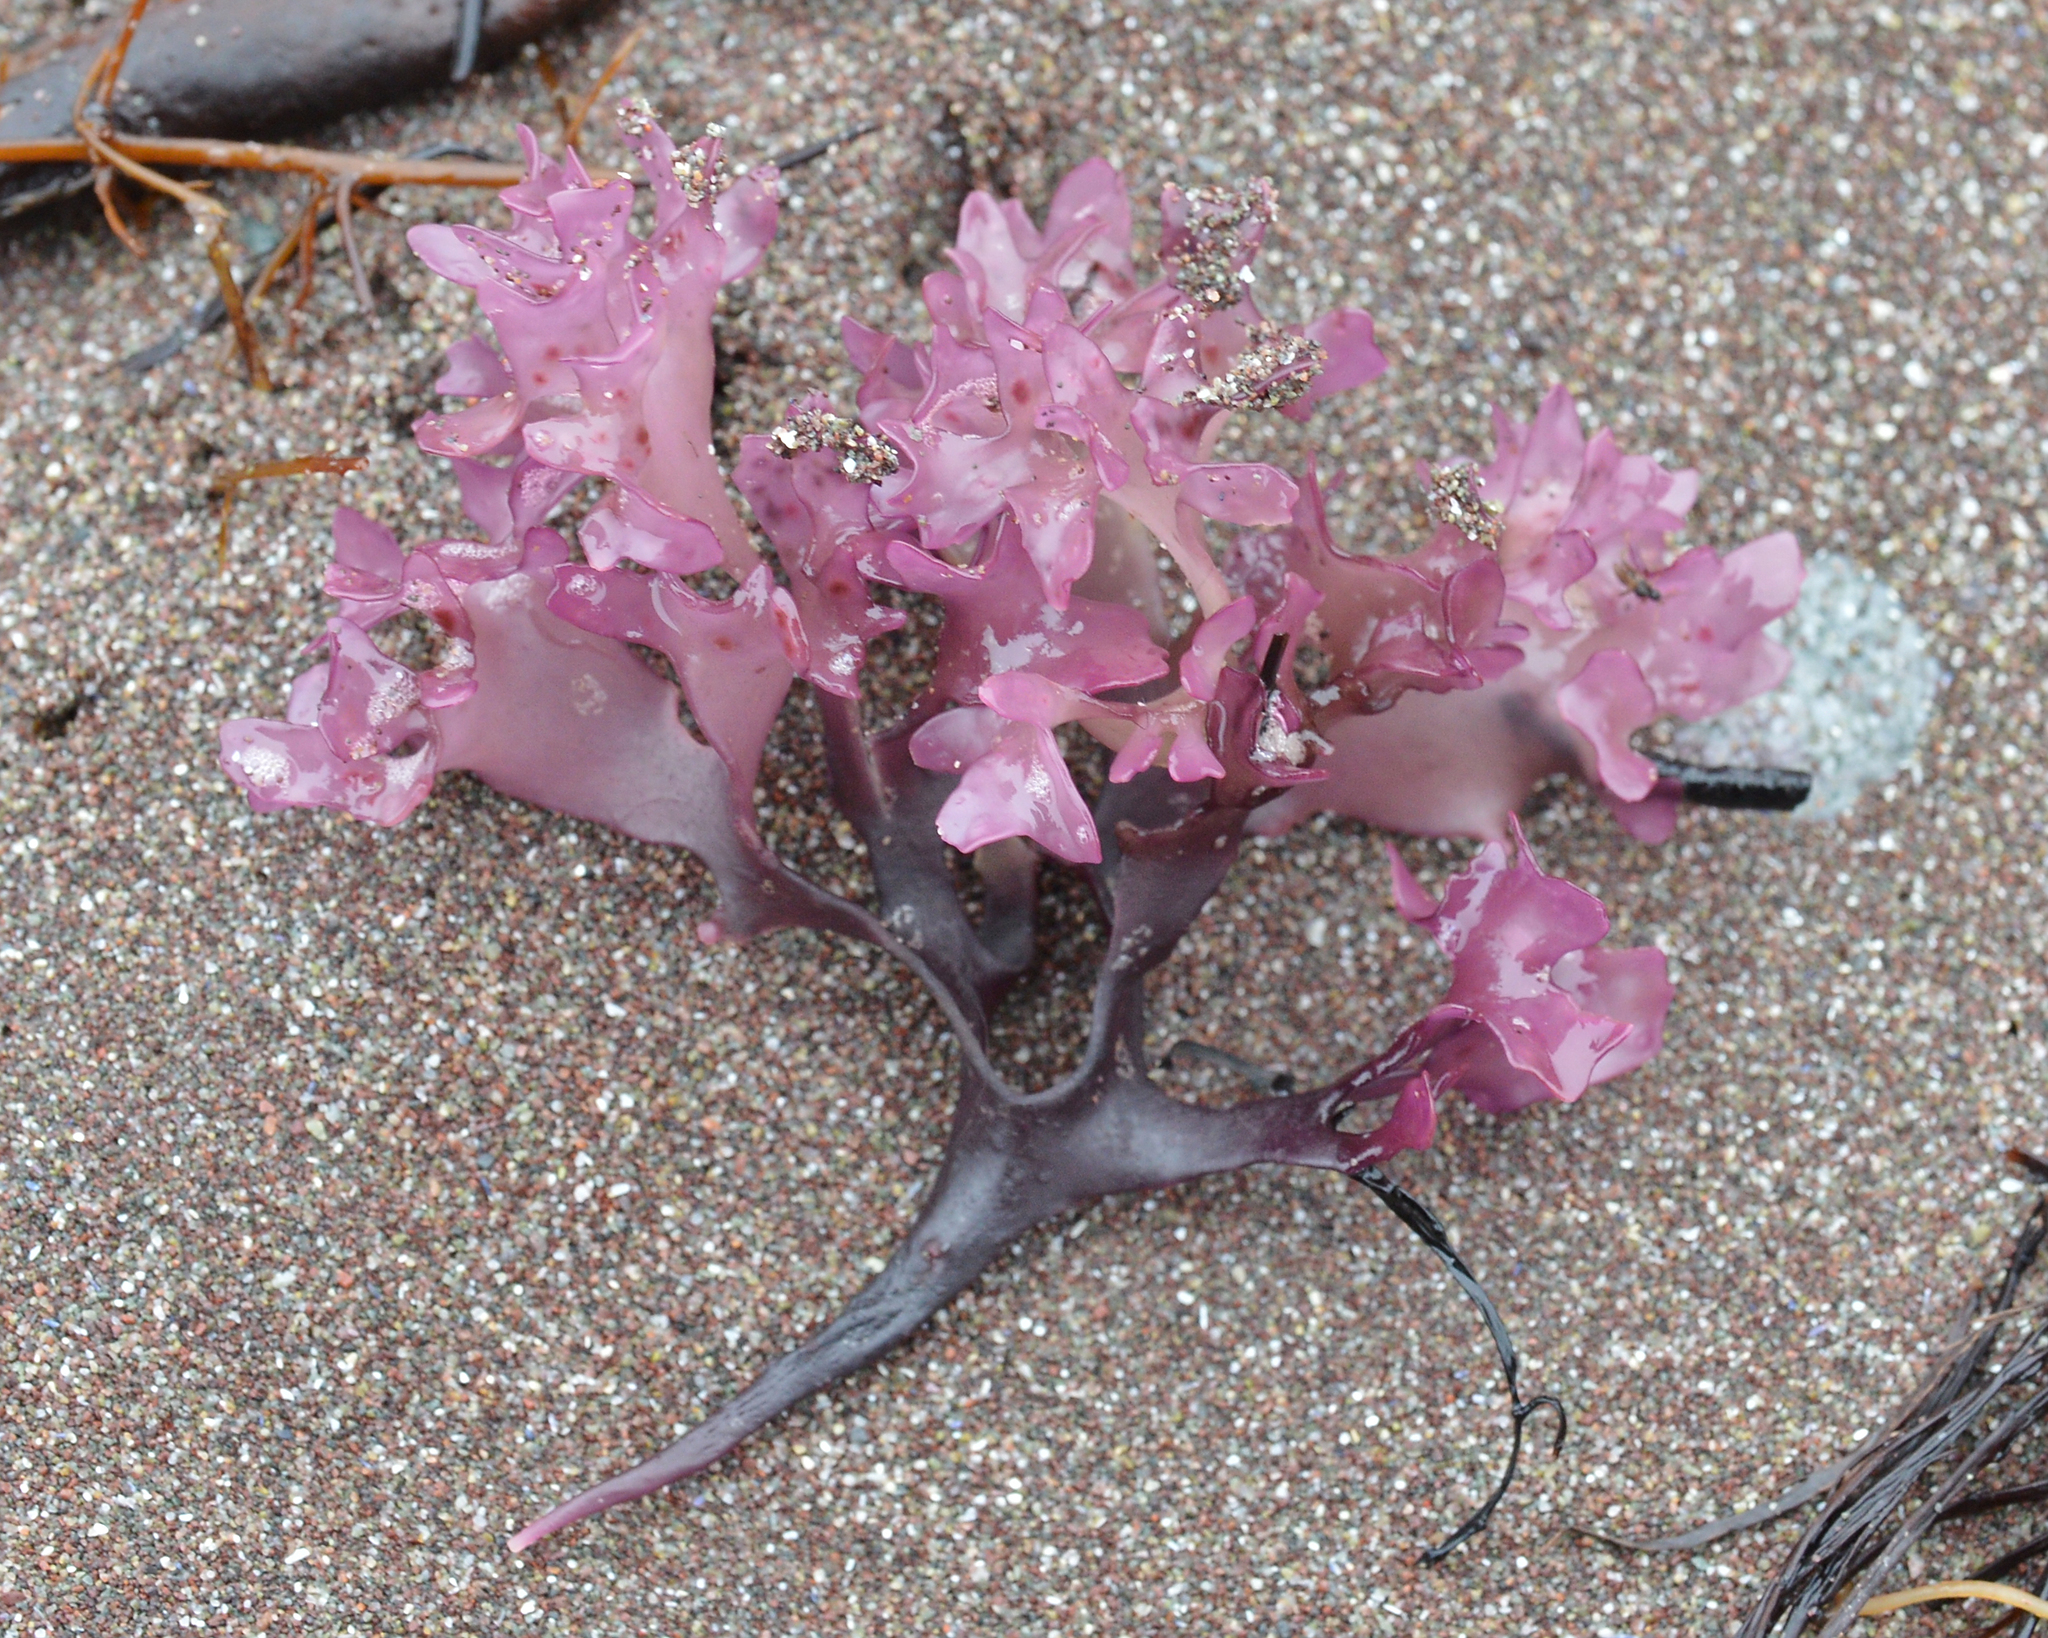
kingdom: Plantae
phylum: Rhodophyta
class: Florideophyceae
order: Gigartinales
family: Gigartinaceae
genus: Chondrus
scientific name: Chondrus crispus
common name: Carrageen
